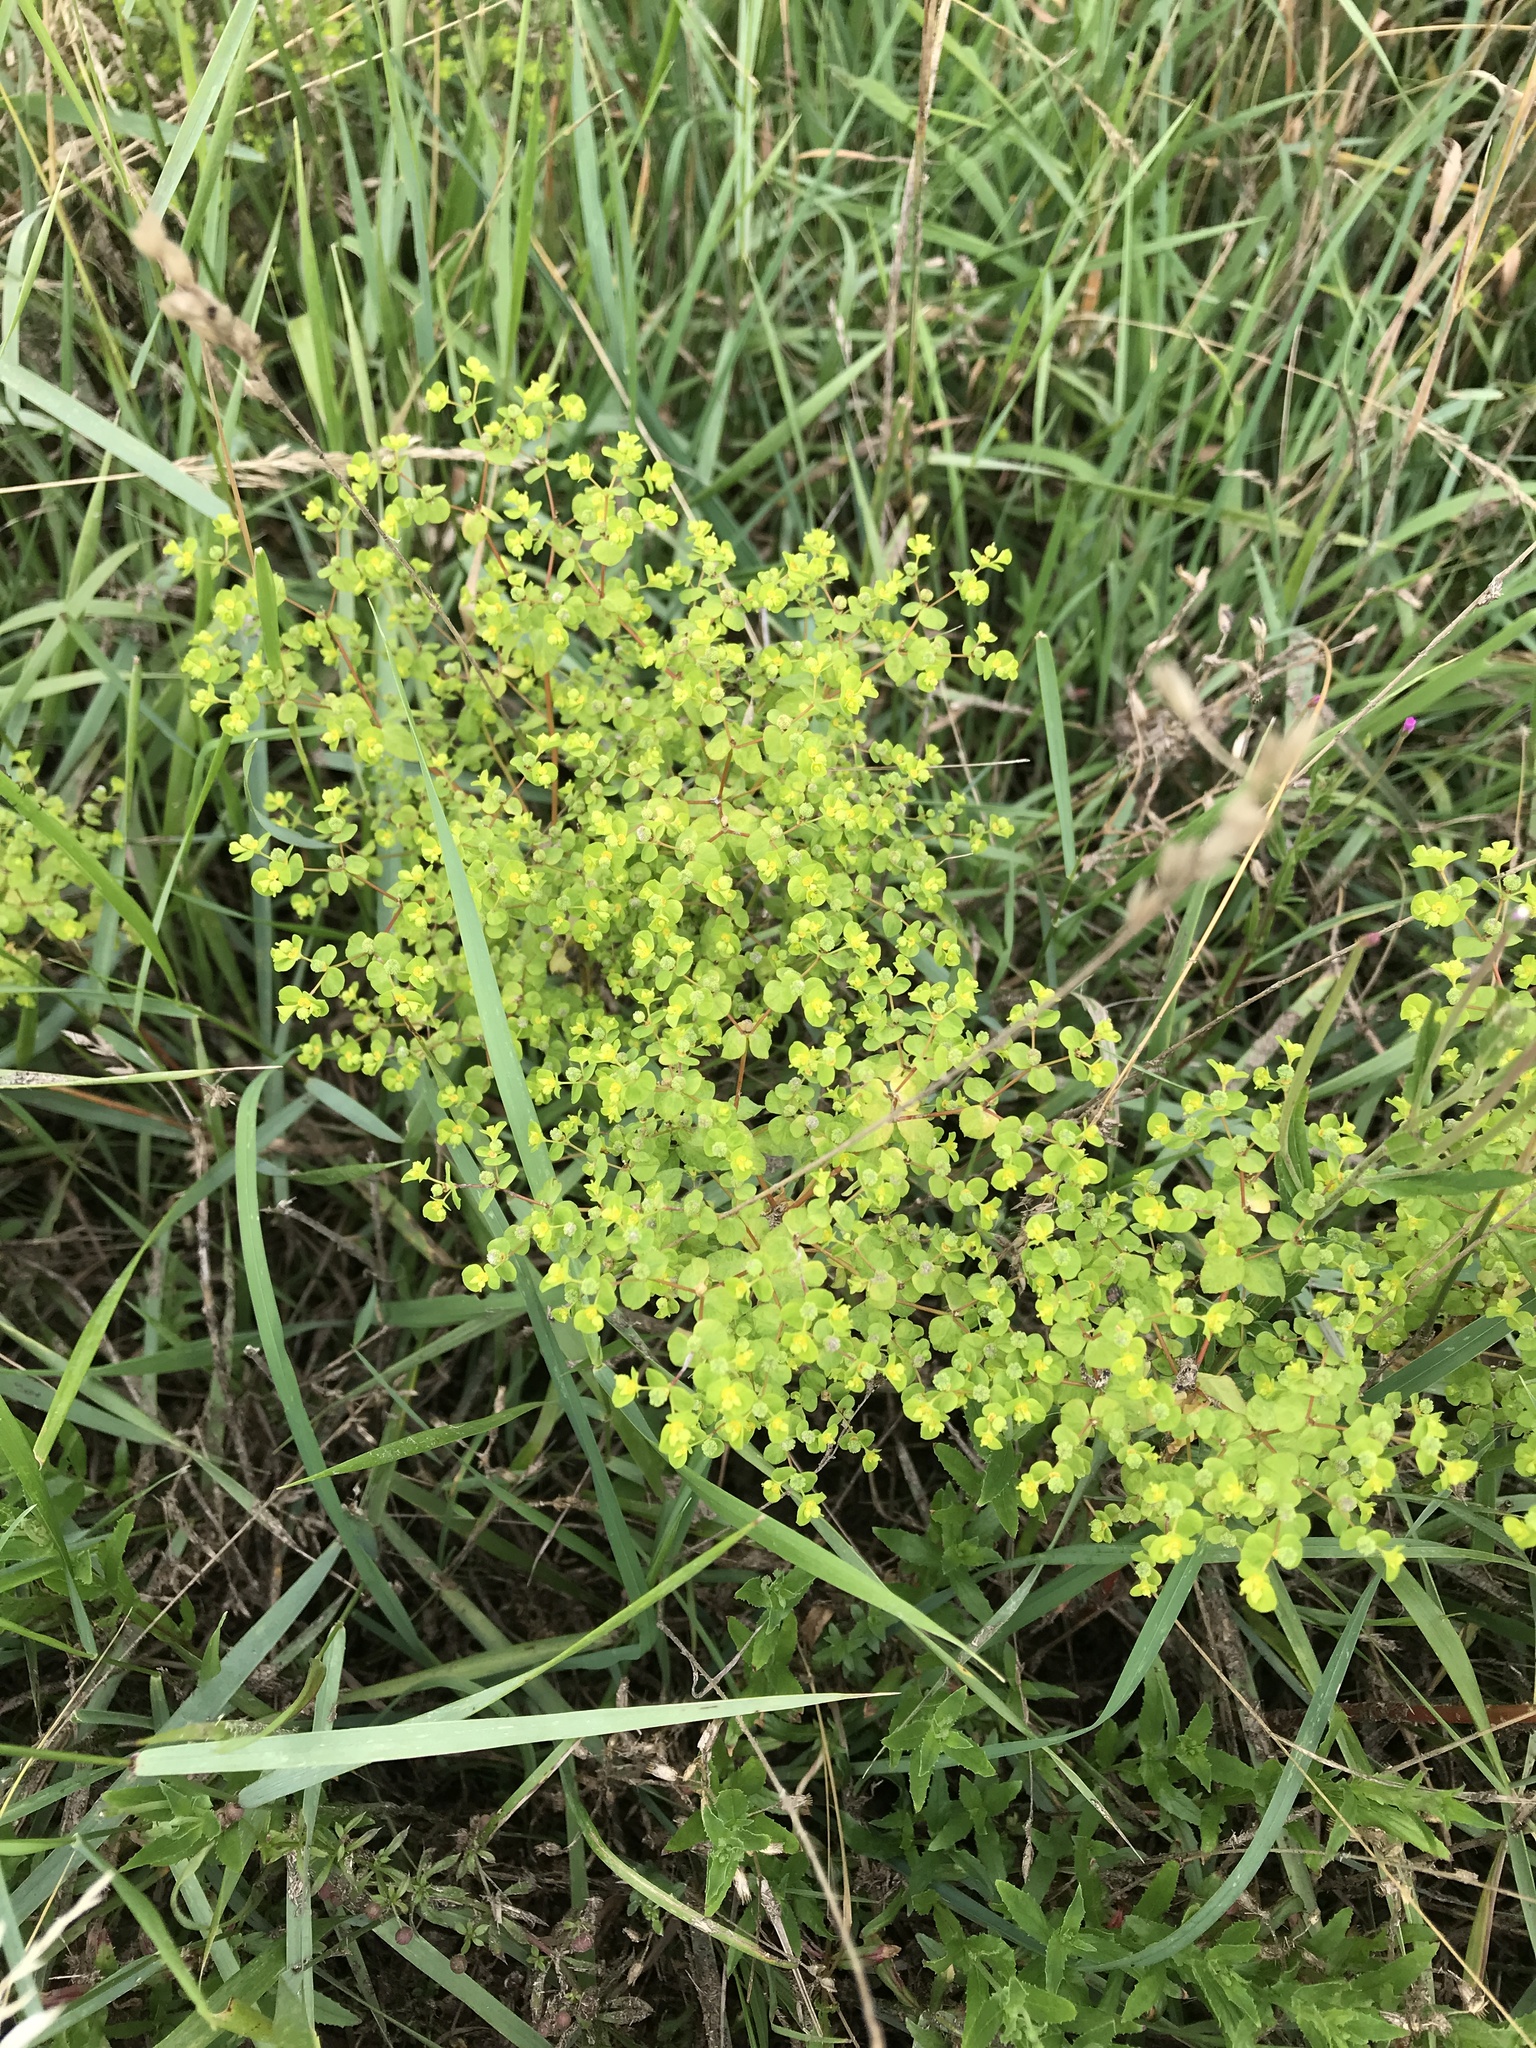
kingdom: Plantae
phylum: Tracheophyta
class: Magnoliopsida
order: Malpighiales
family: Euphorbiaceae
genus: Euphorbia
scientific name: Euphorbia platyphyllos
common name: Broad-leaved spurge
